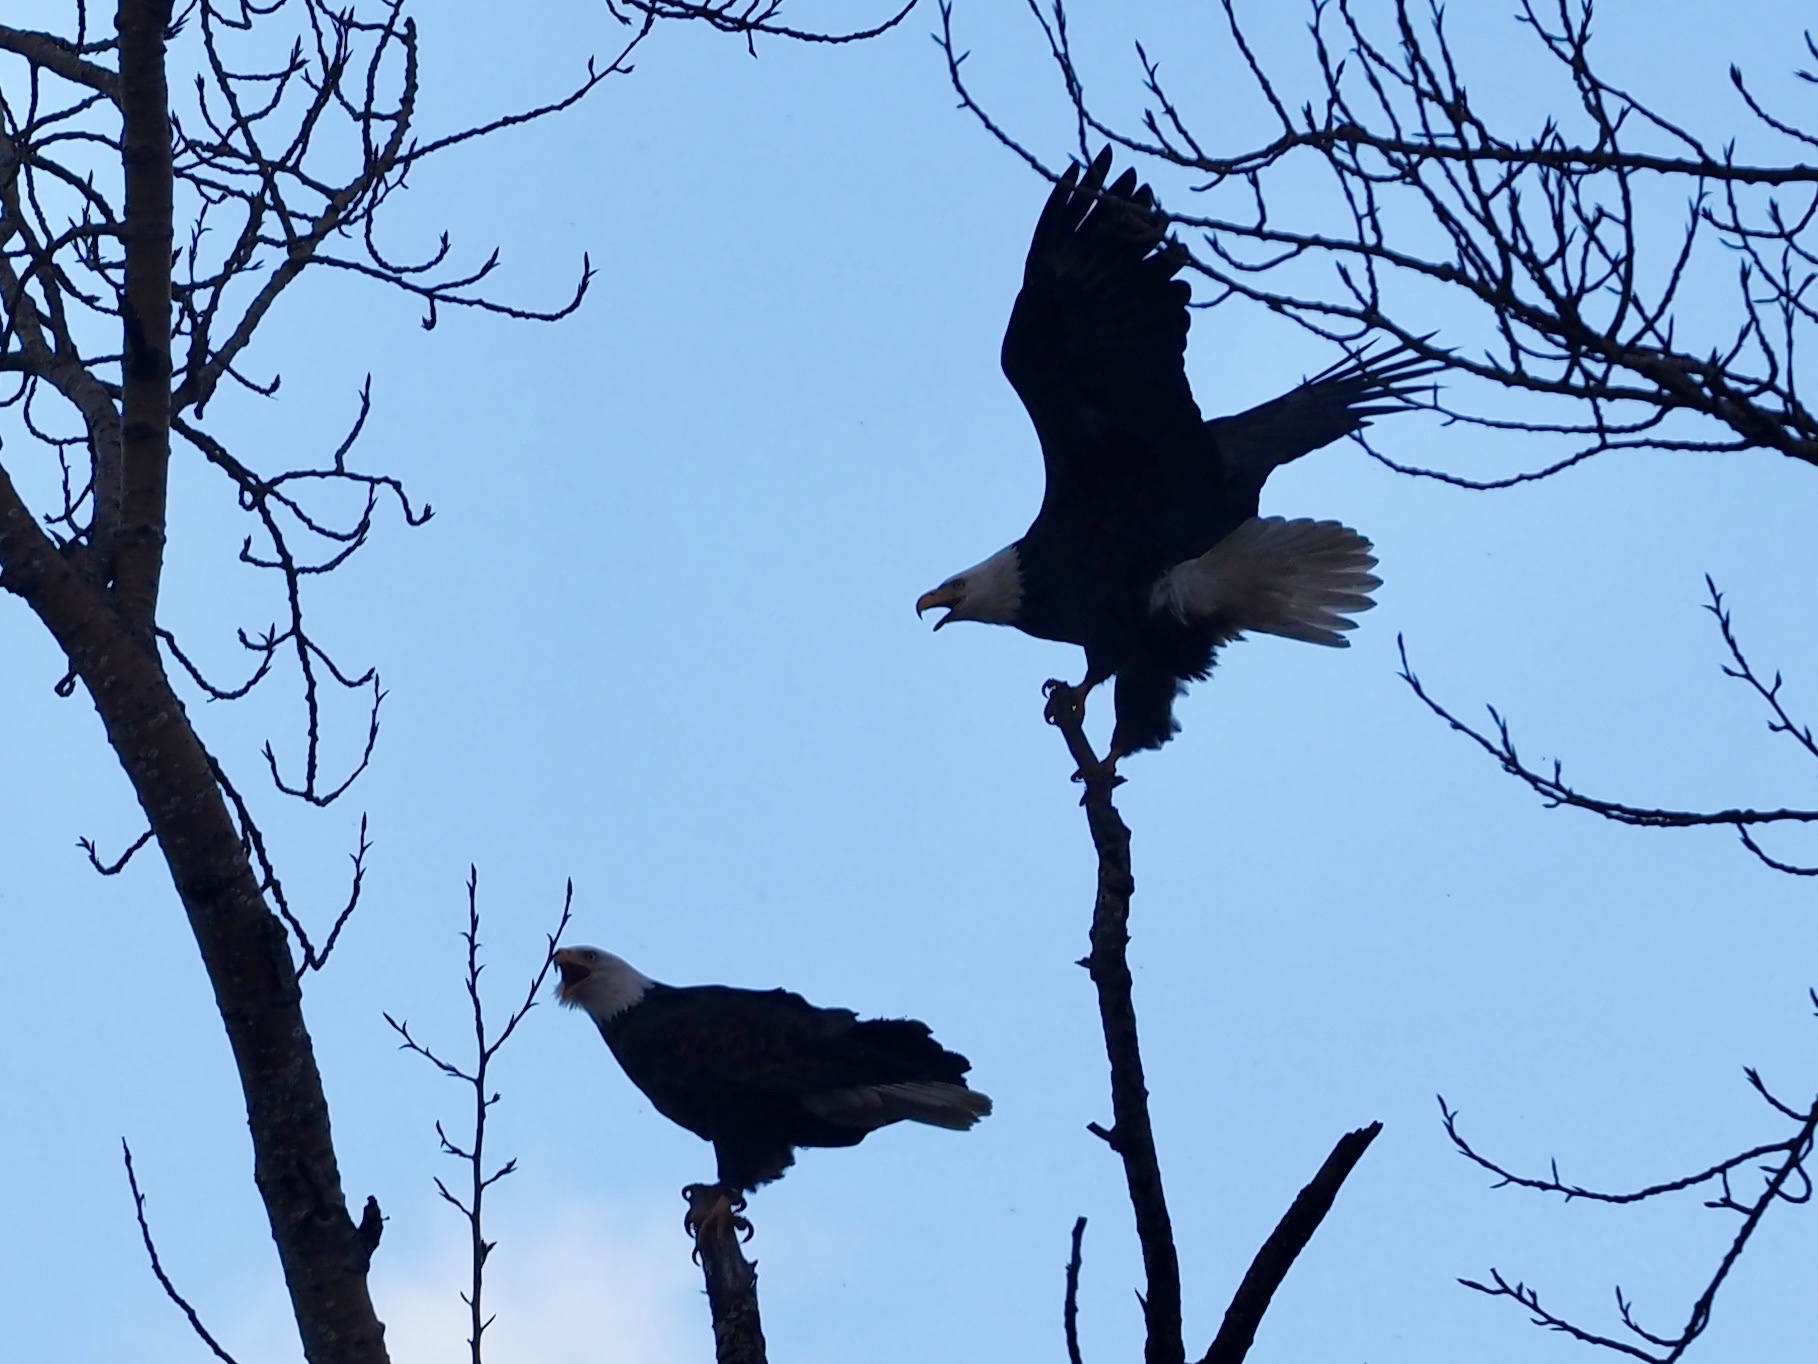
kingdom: Animalia
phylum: Chordata
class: Aves
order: Accipitriformes
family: Accipitridae
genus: Haliaeetus
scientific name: Haliaeetus leucocephalus
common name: Bald eagle
